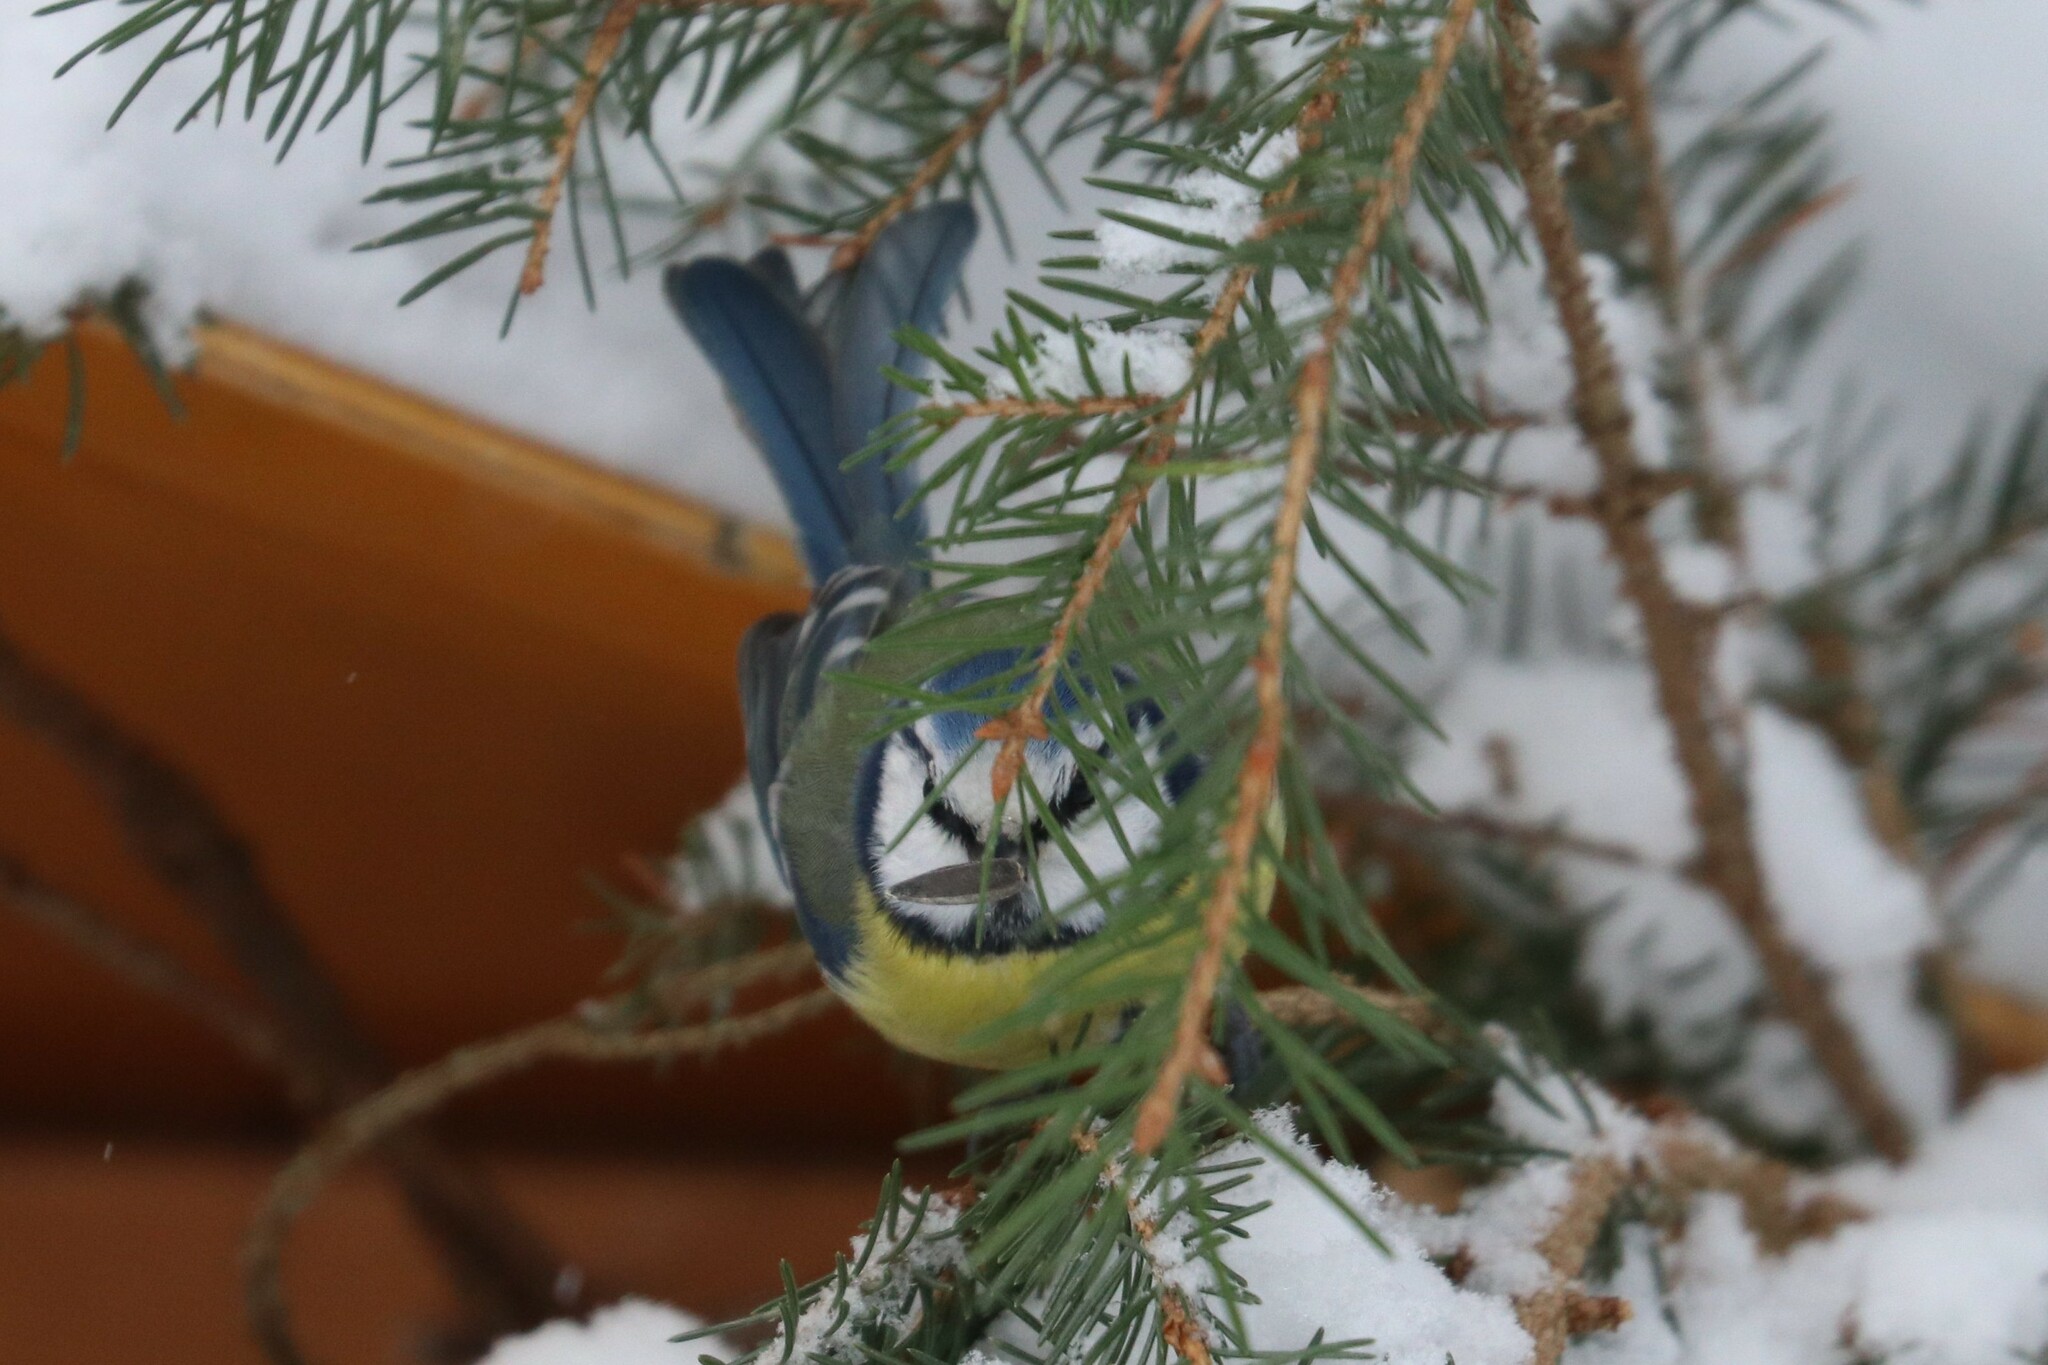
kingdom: Animalia
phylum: Chordata
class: Aves
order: Passeriformes
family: Paridae
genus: Cyanistes
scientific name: Cyanistes caeruleus
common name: Eurasian blue tit
